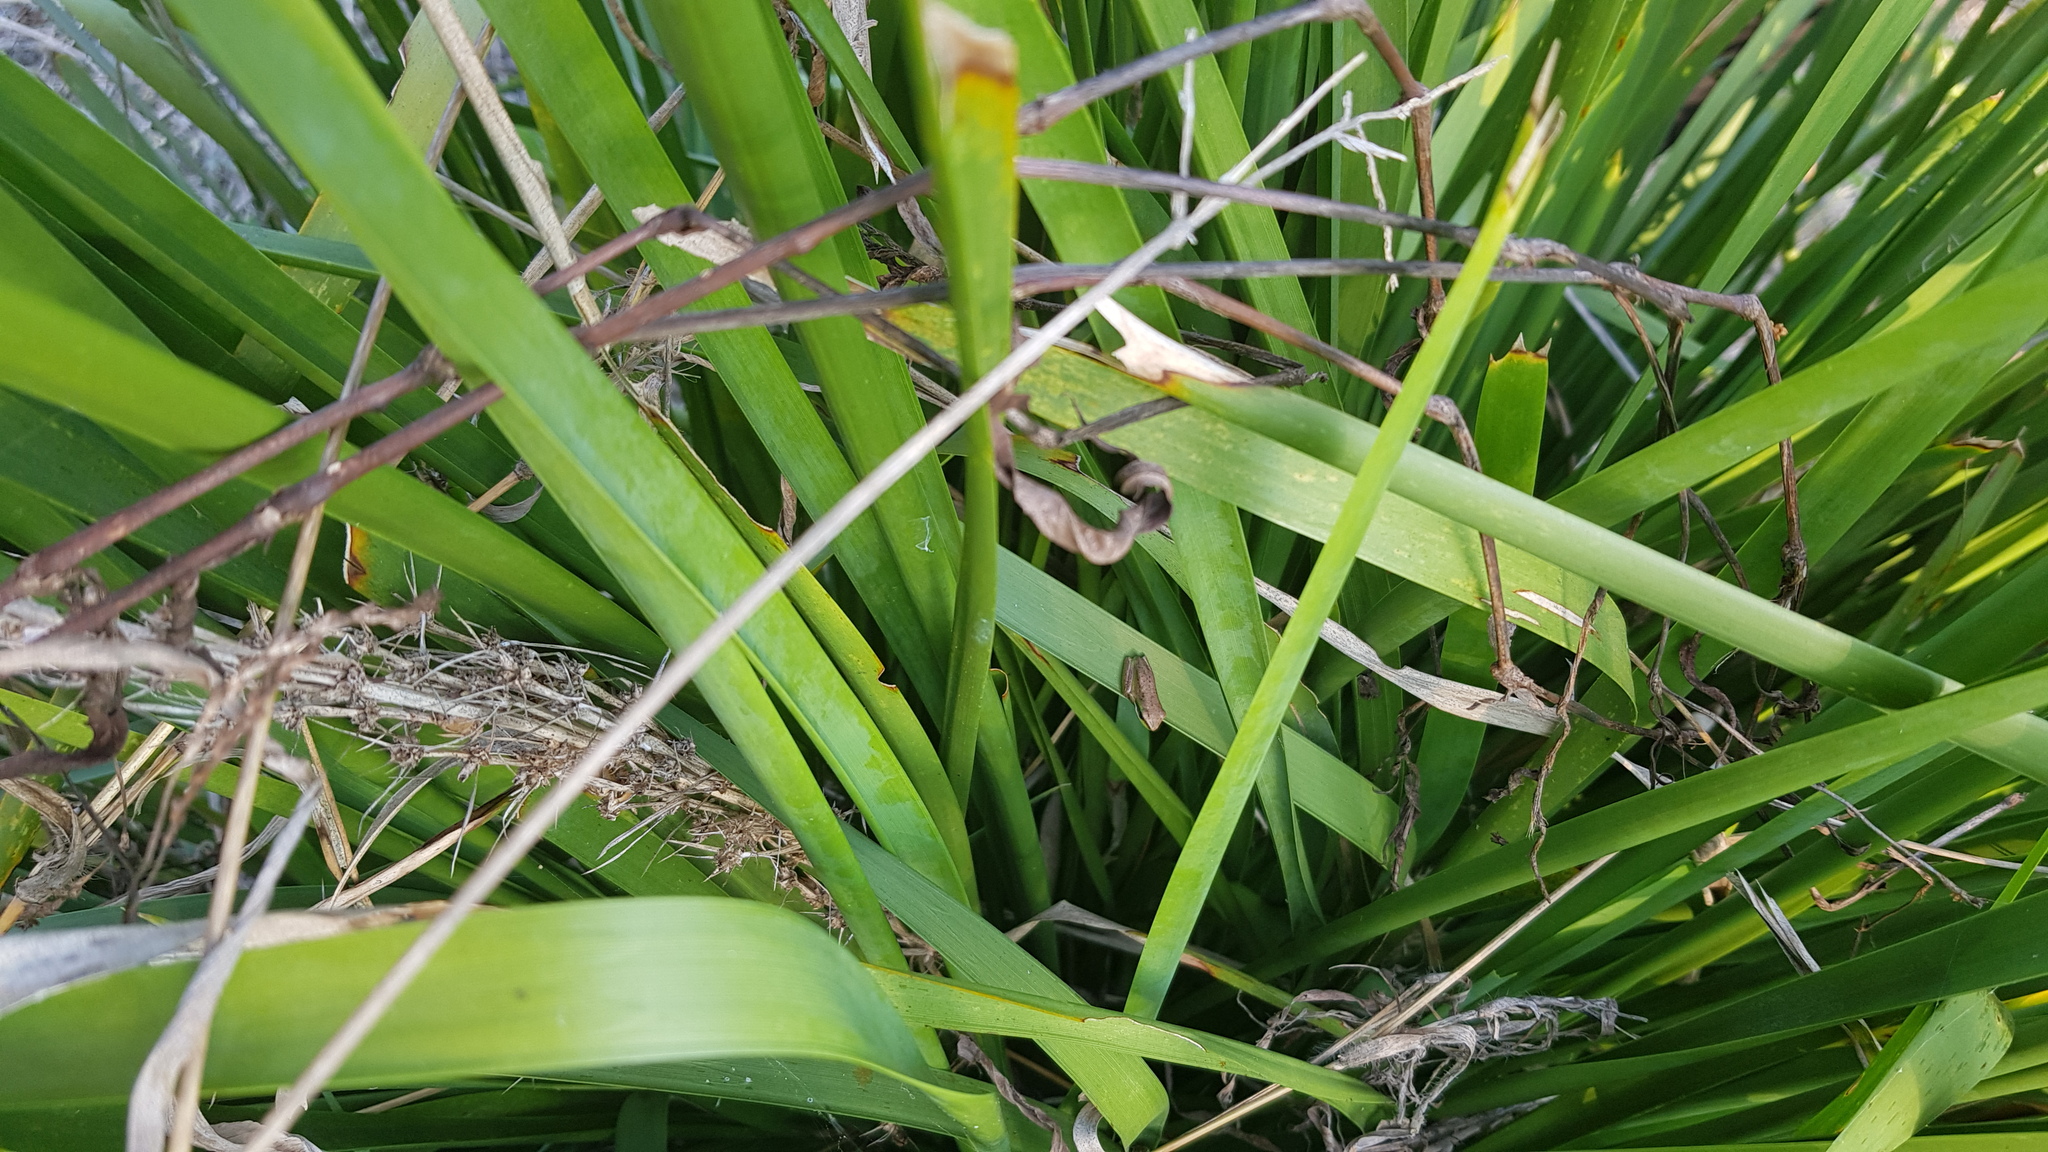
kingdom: Animalia
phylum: Chordata
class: Amphibia
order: Anura
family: Pelodryadidae
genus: Litoria
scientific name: Litoria fallax
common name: Eastern dwarf treefrog
